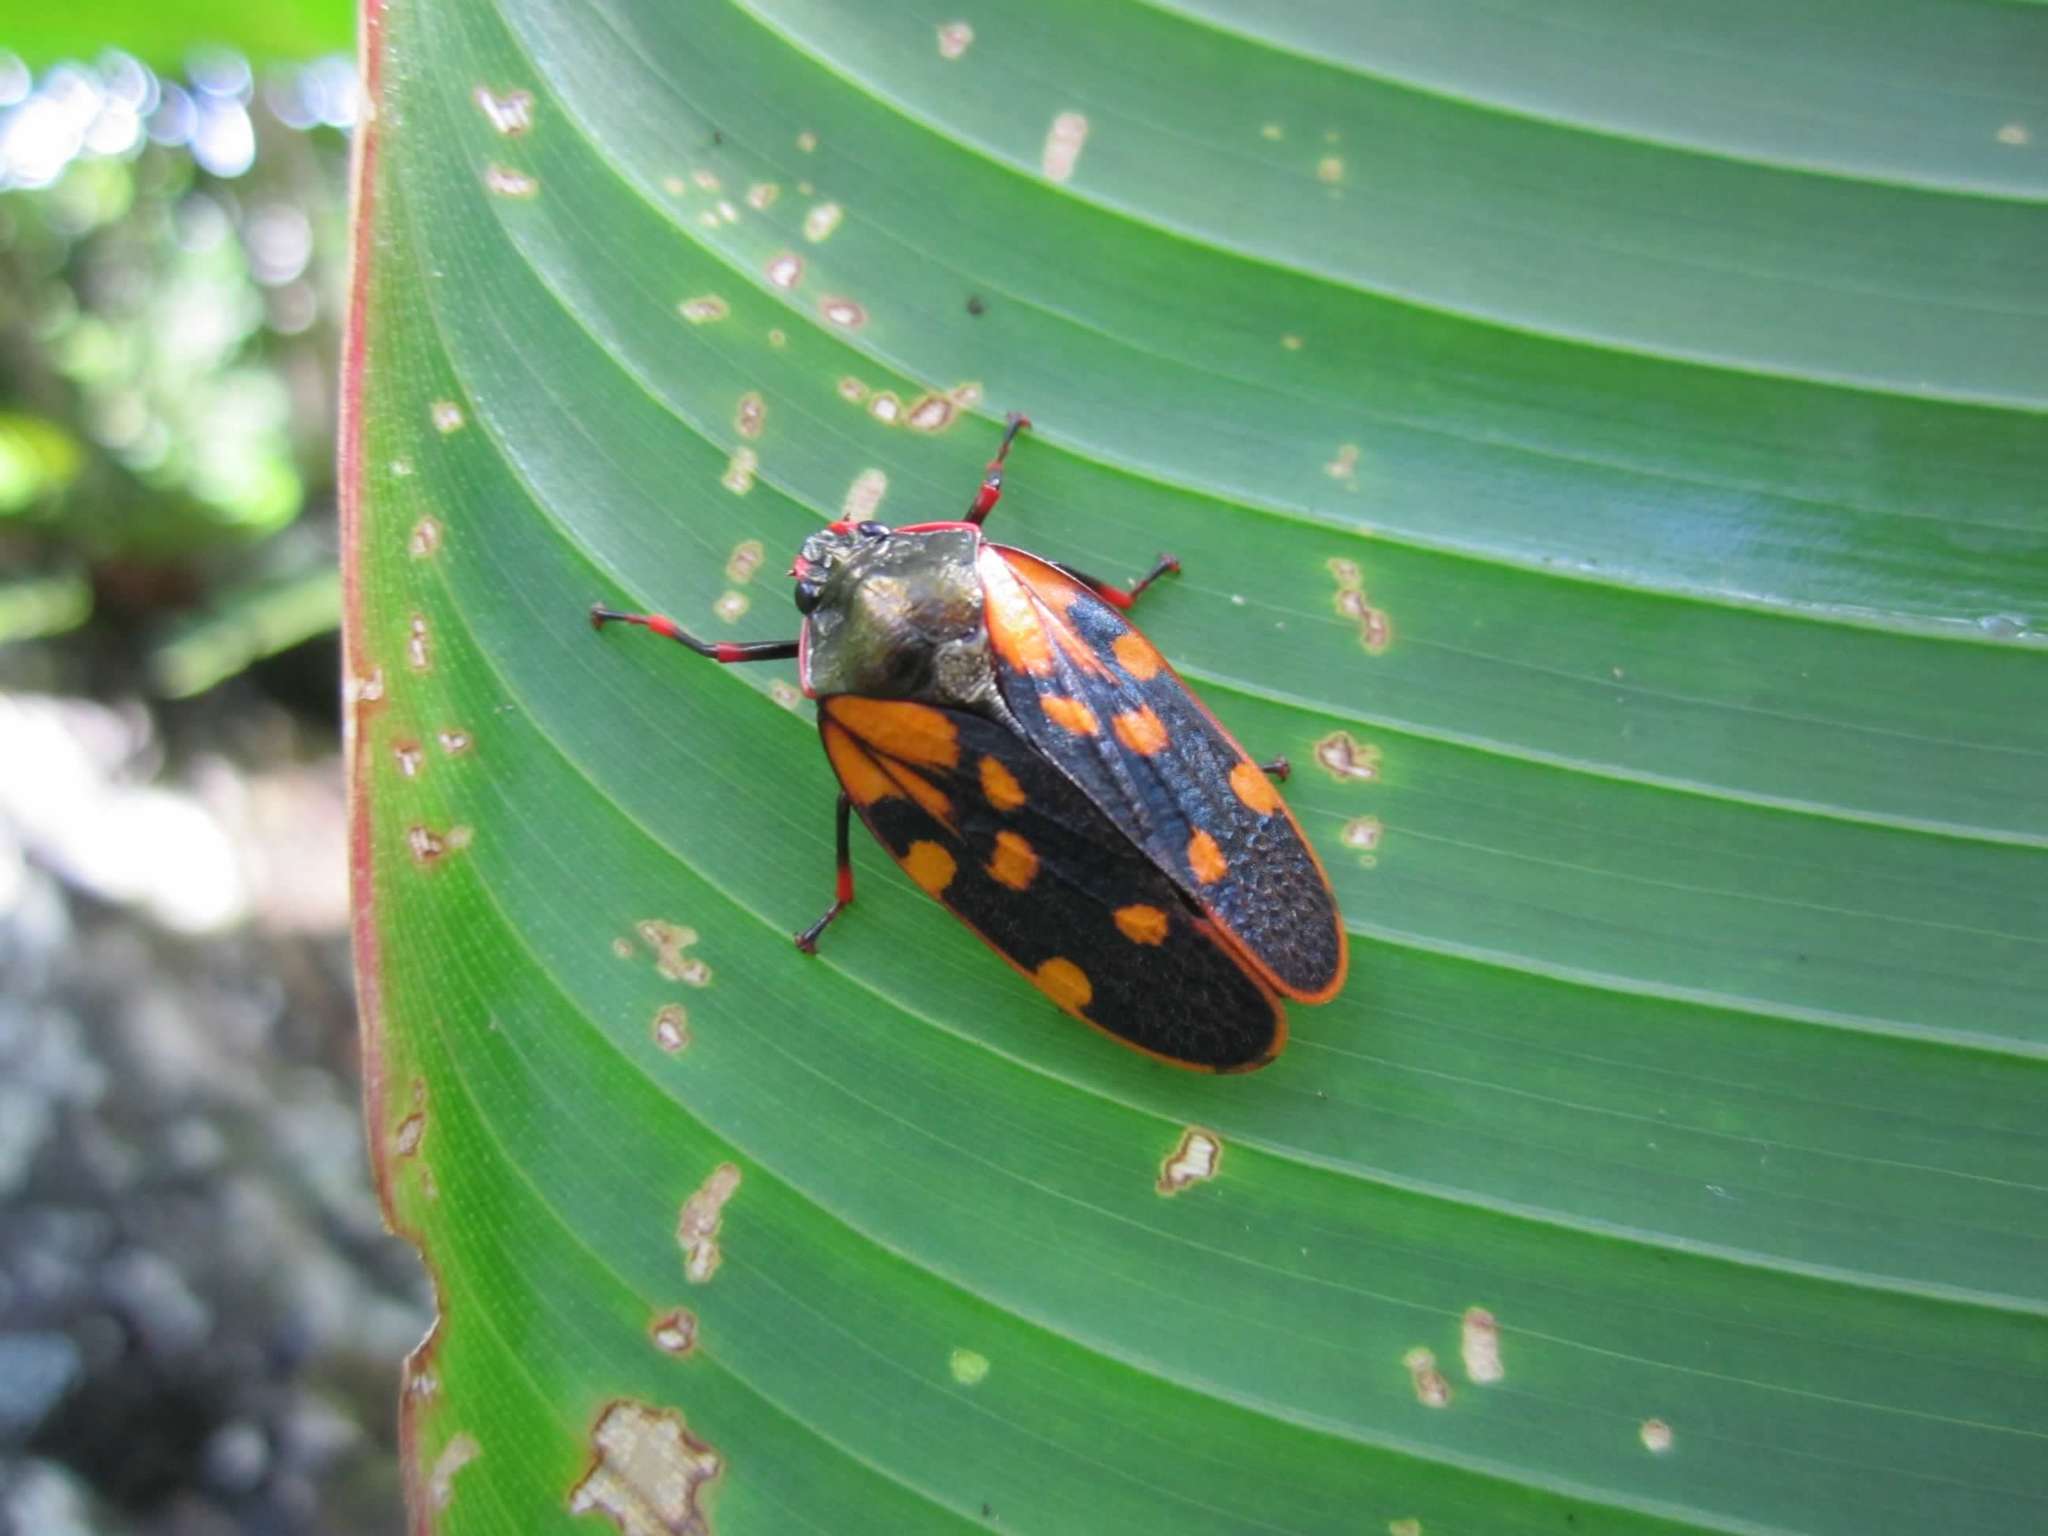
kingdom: Animalia
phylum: Arthropoda
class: Insecta
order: Hemiptera
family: Cercopidae
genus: Mahanarva
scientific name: Mahanarva costaricensis
